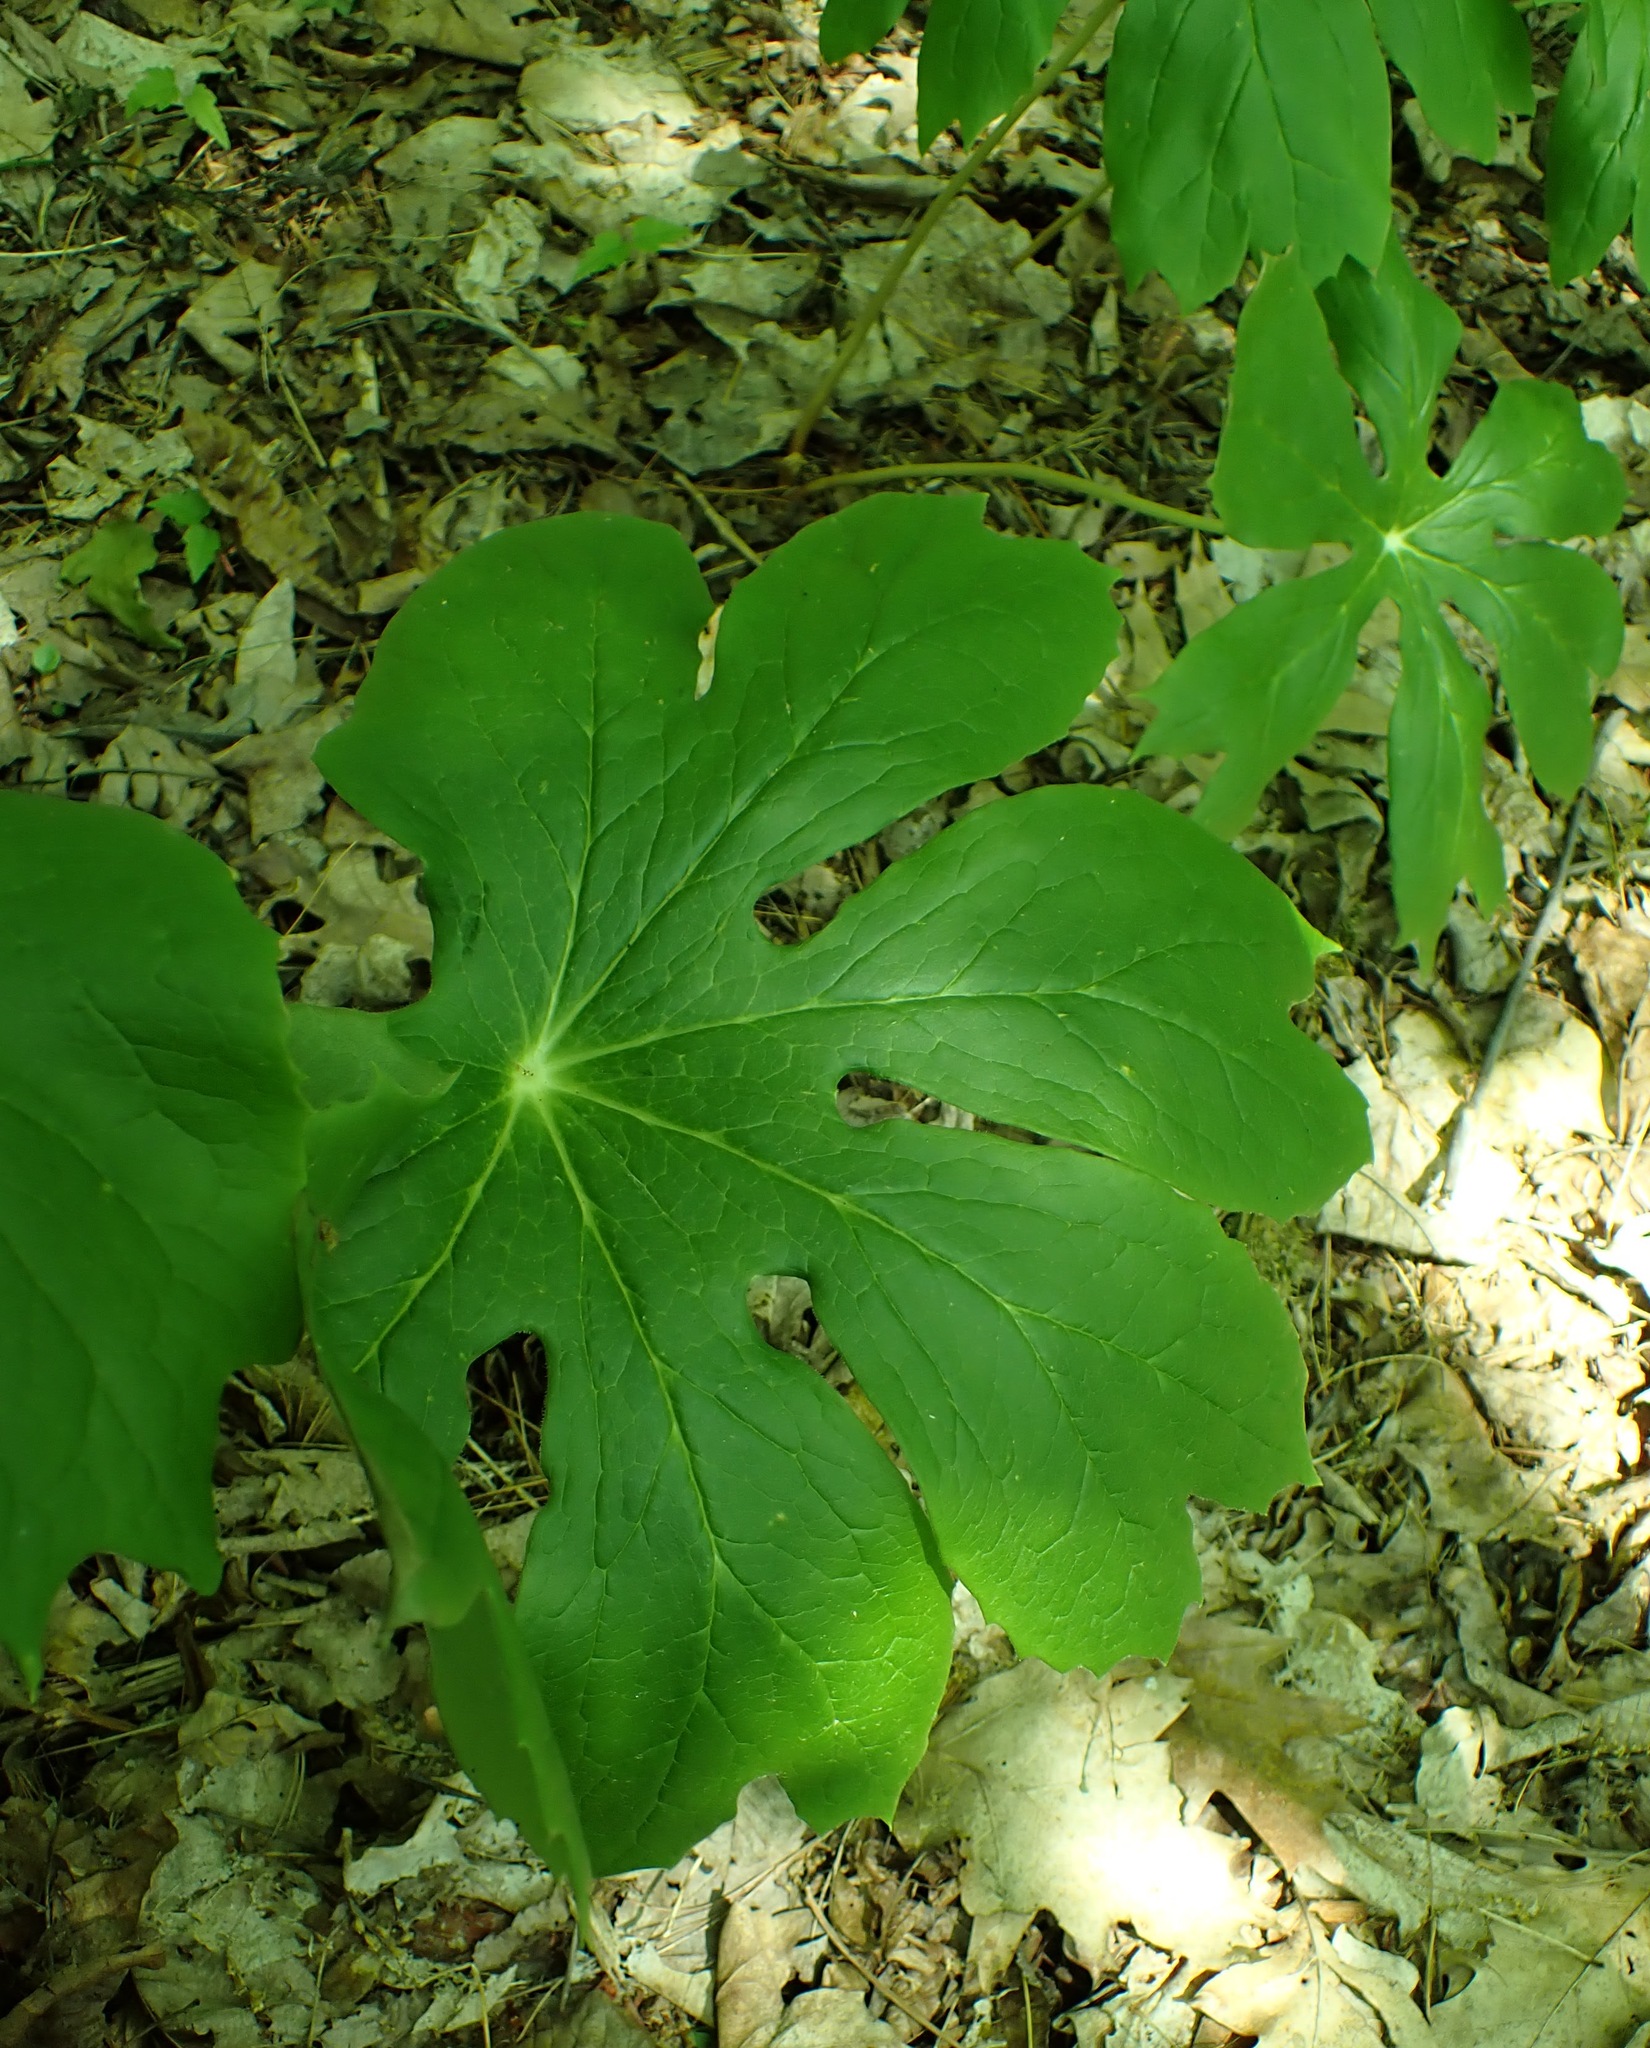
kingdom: Plantae
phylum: Tracheophyta
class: Magnoliopsida
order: Ranunculales
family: Berberidaceae
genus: Podophyllum
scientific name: Podophyllum peltatum
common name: Wild mandrake
